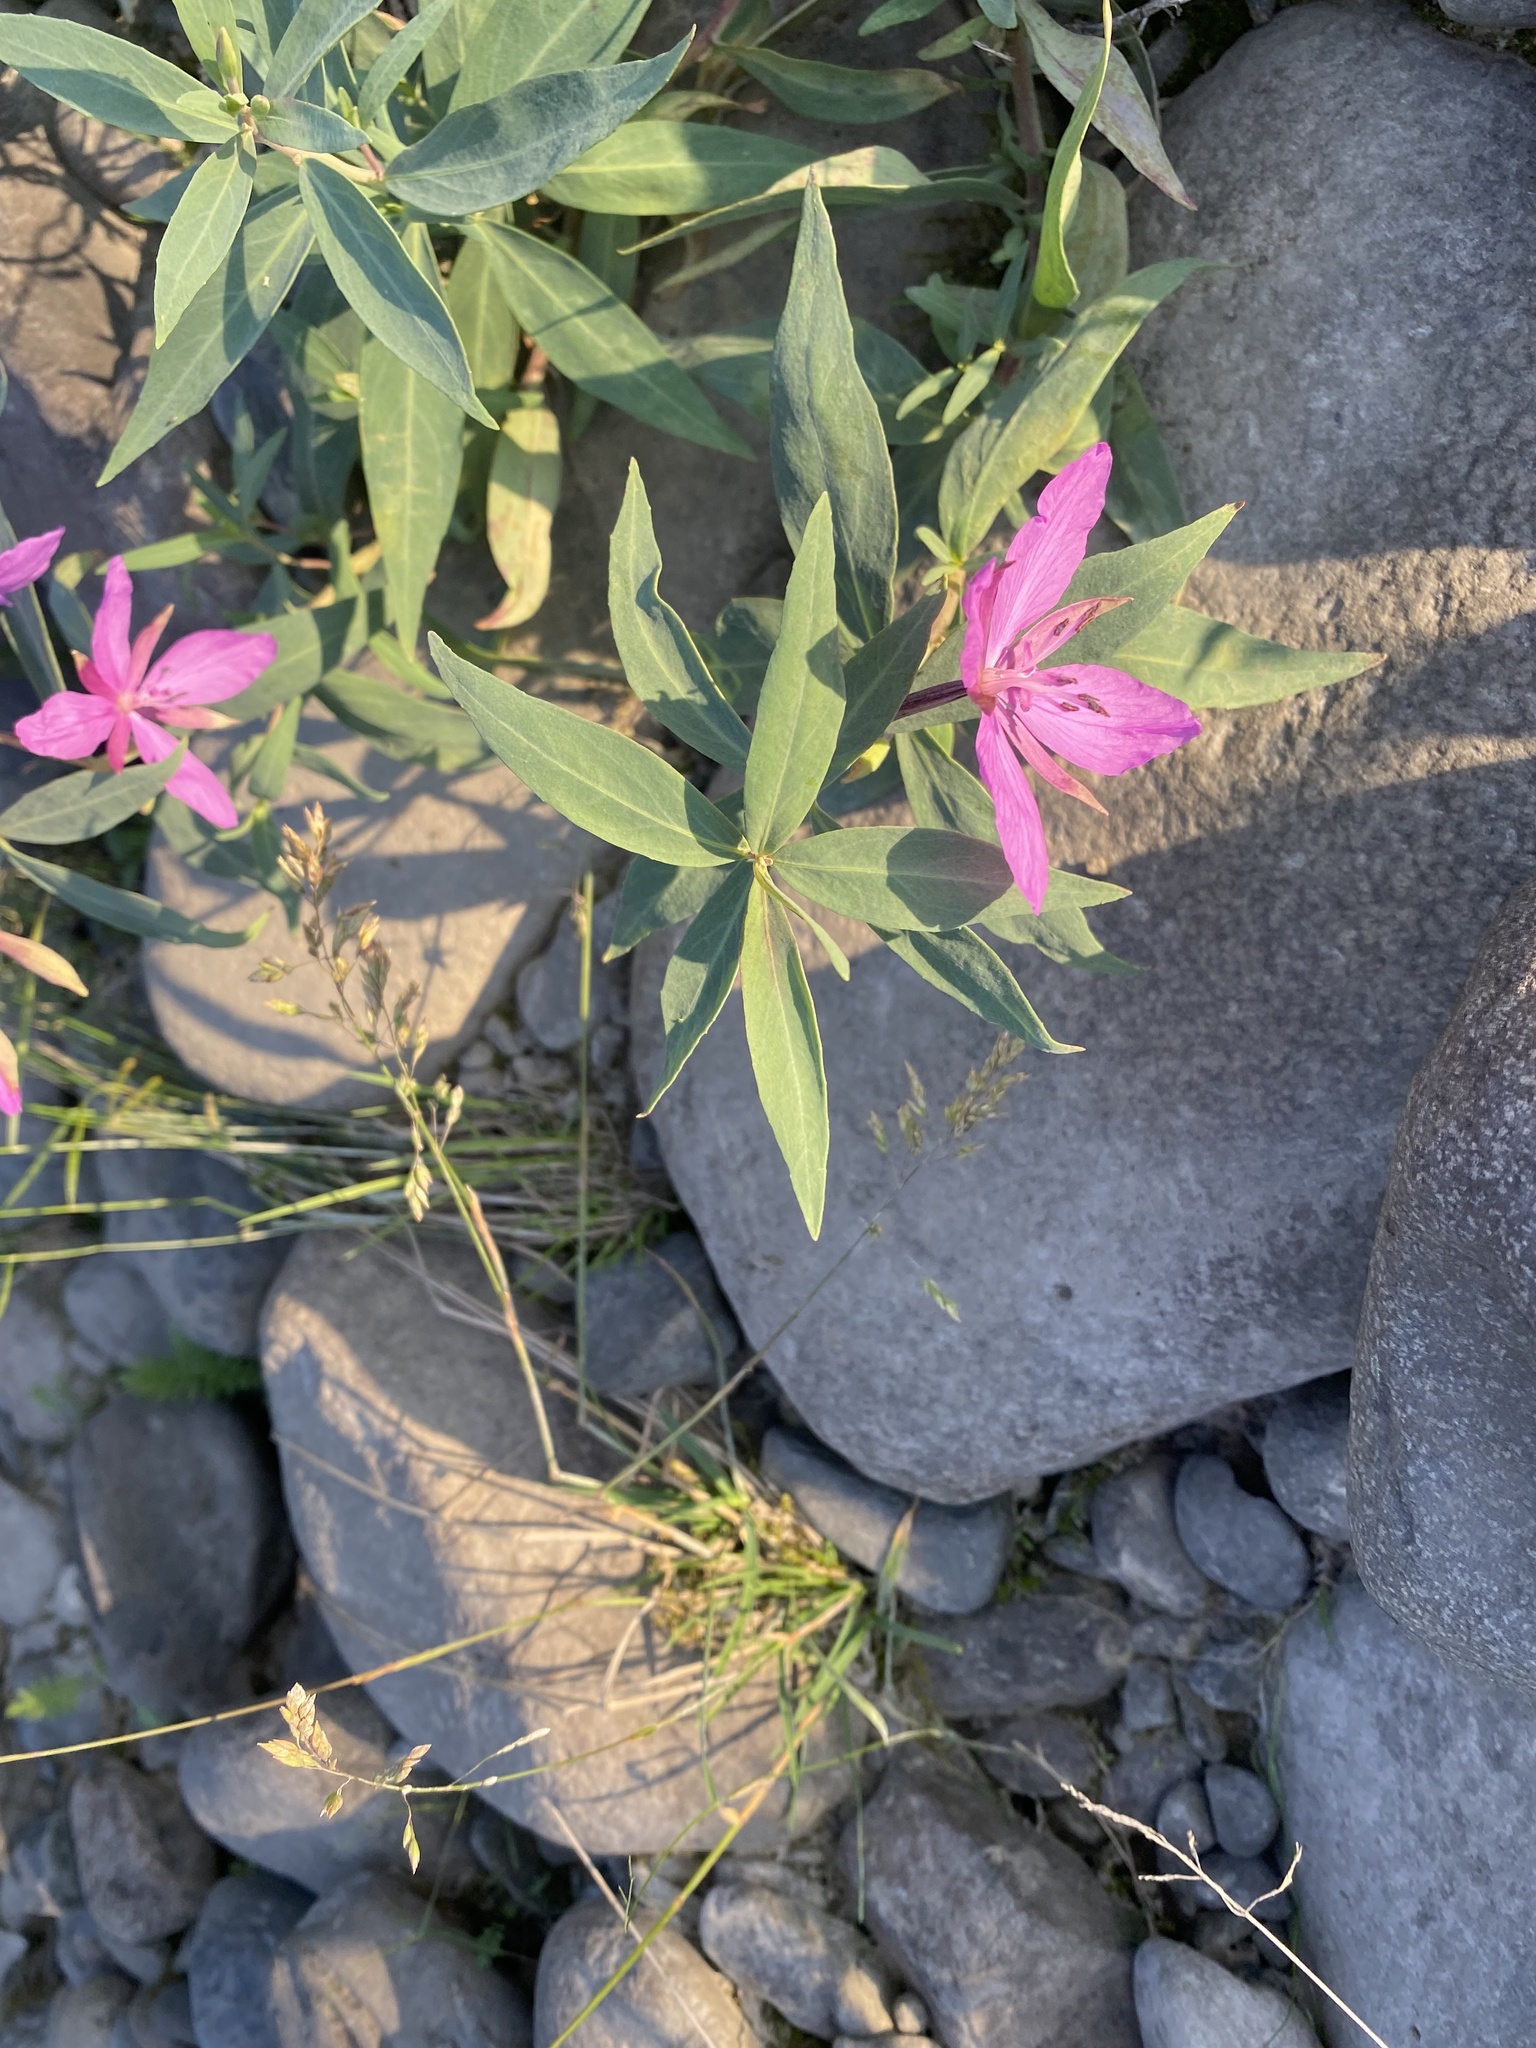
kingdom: Plantae
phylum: Tracheophyta
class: Magnoliopsida
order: Myrtales
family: Onagraceae
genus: Chamaenerion
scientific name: Chamaenerion latifolium
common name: Dwarf fireweed
